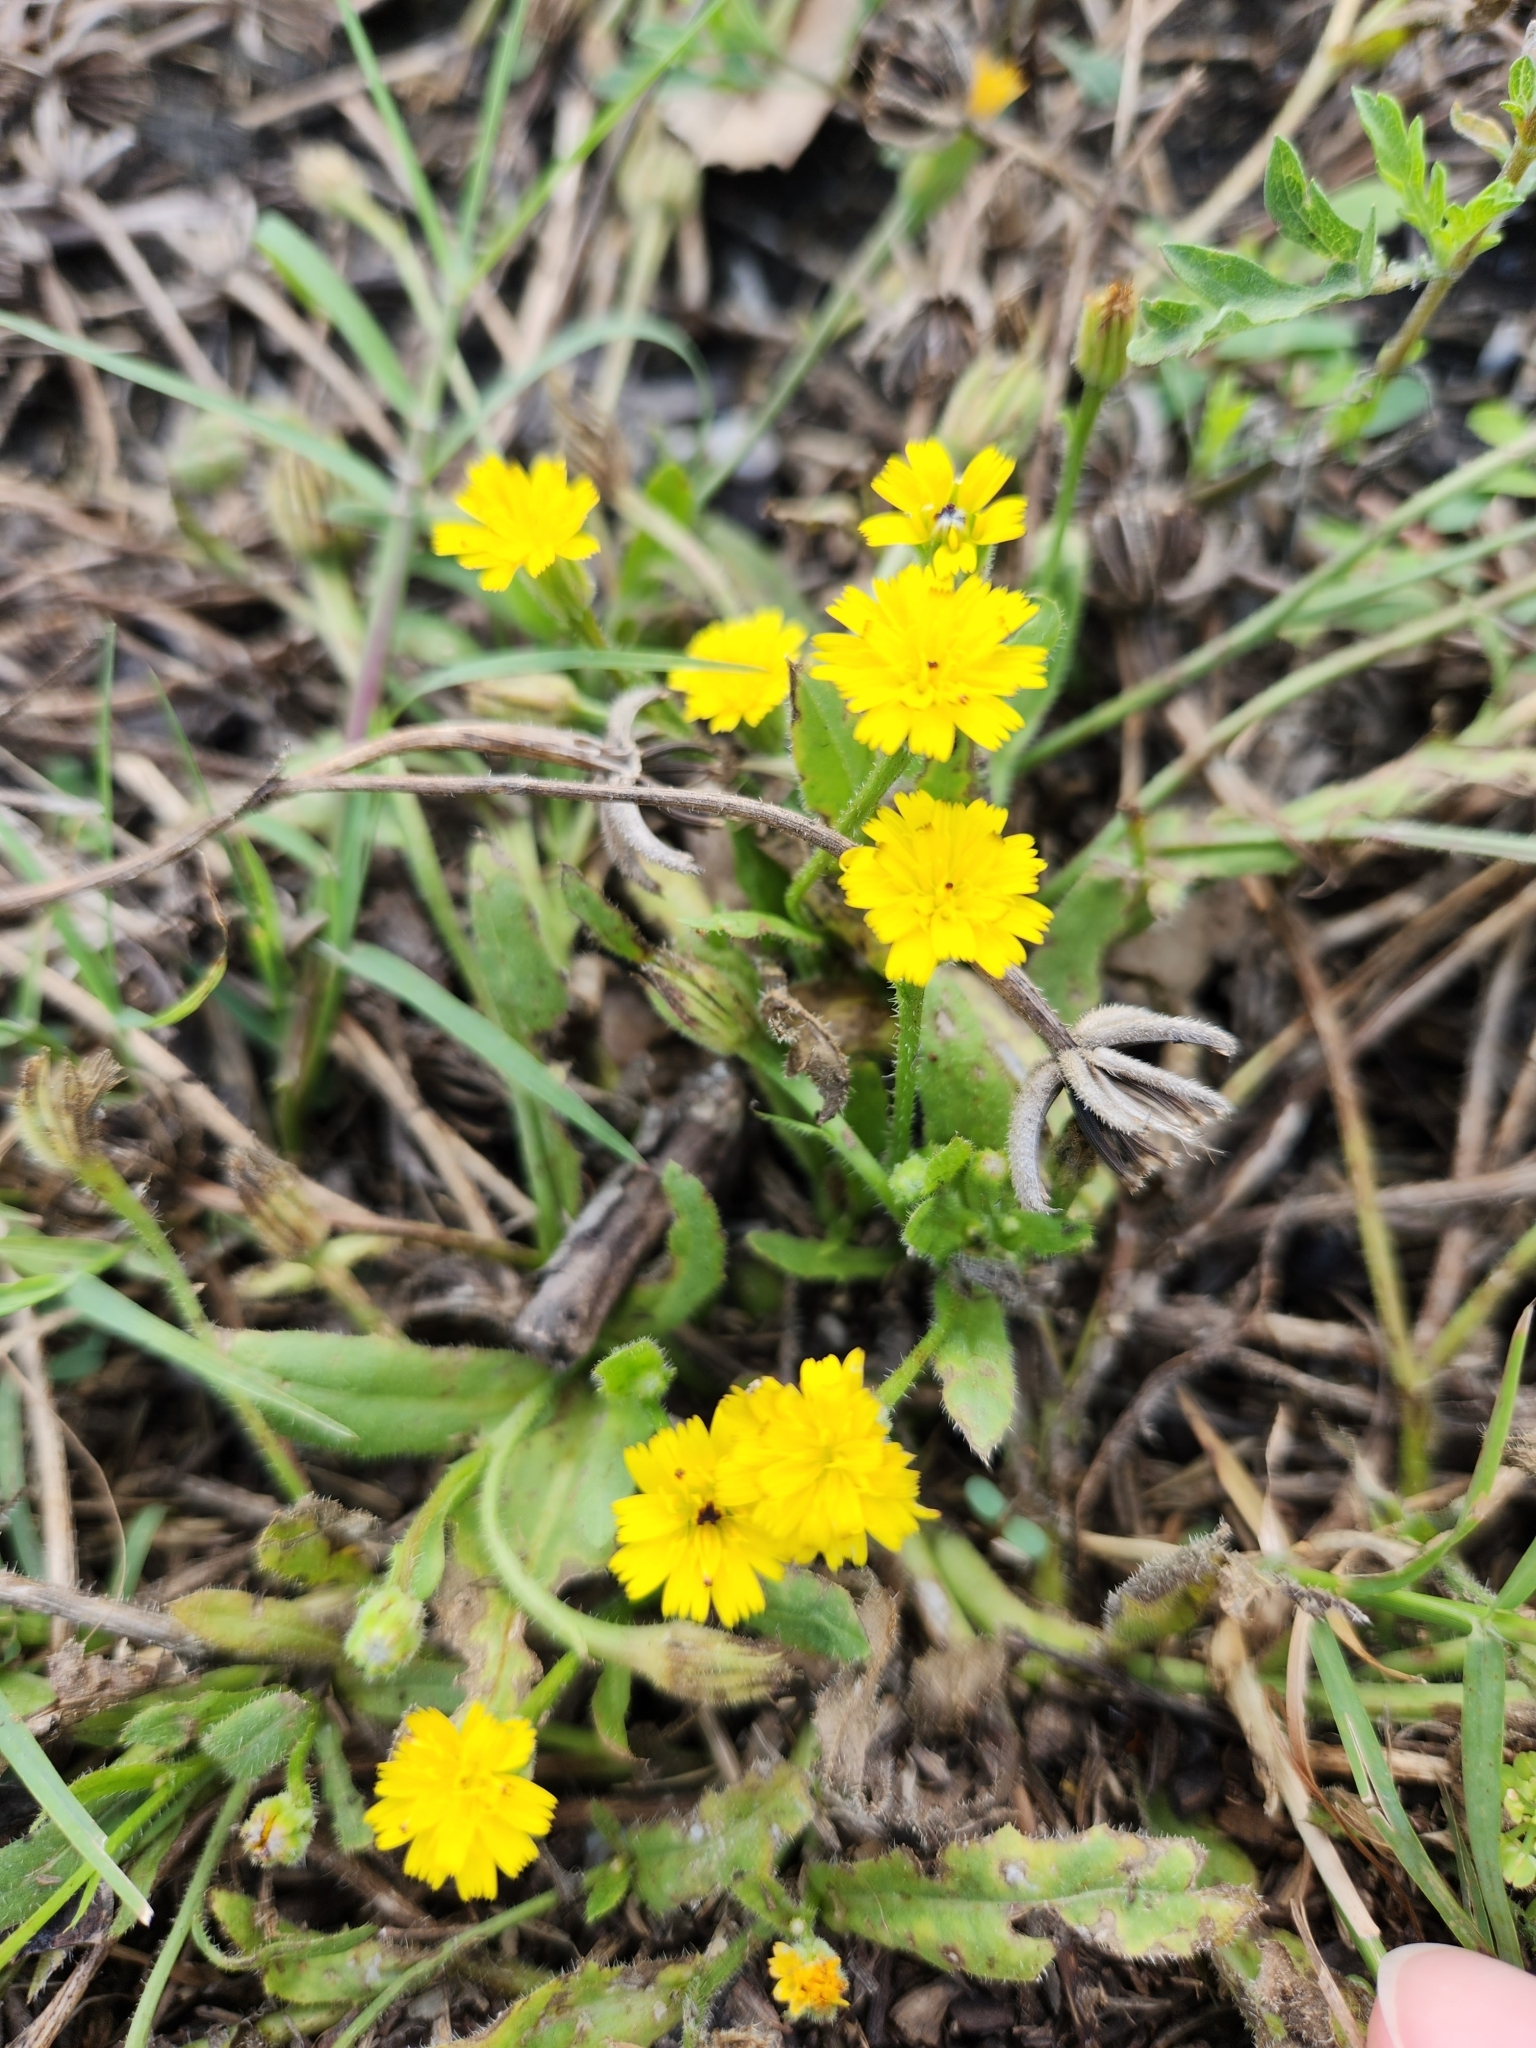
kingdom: Plantae
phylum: Tracheophyta
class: Magnoliopsida
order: Asterales
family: Asteraceae
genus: Hedypnois
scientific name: Hedypnois rhagadioloides
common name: Cretan weed
